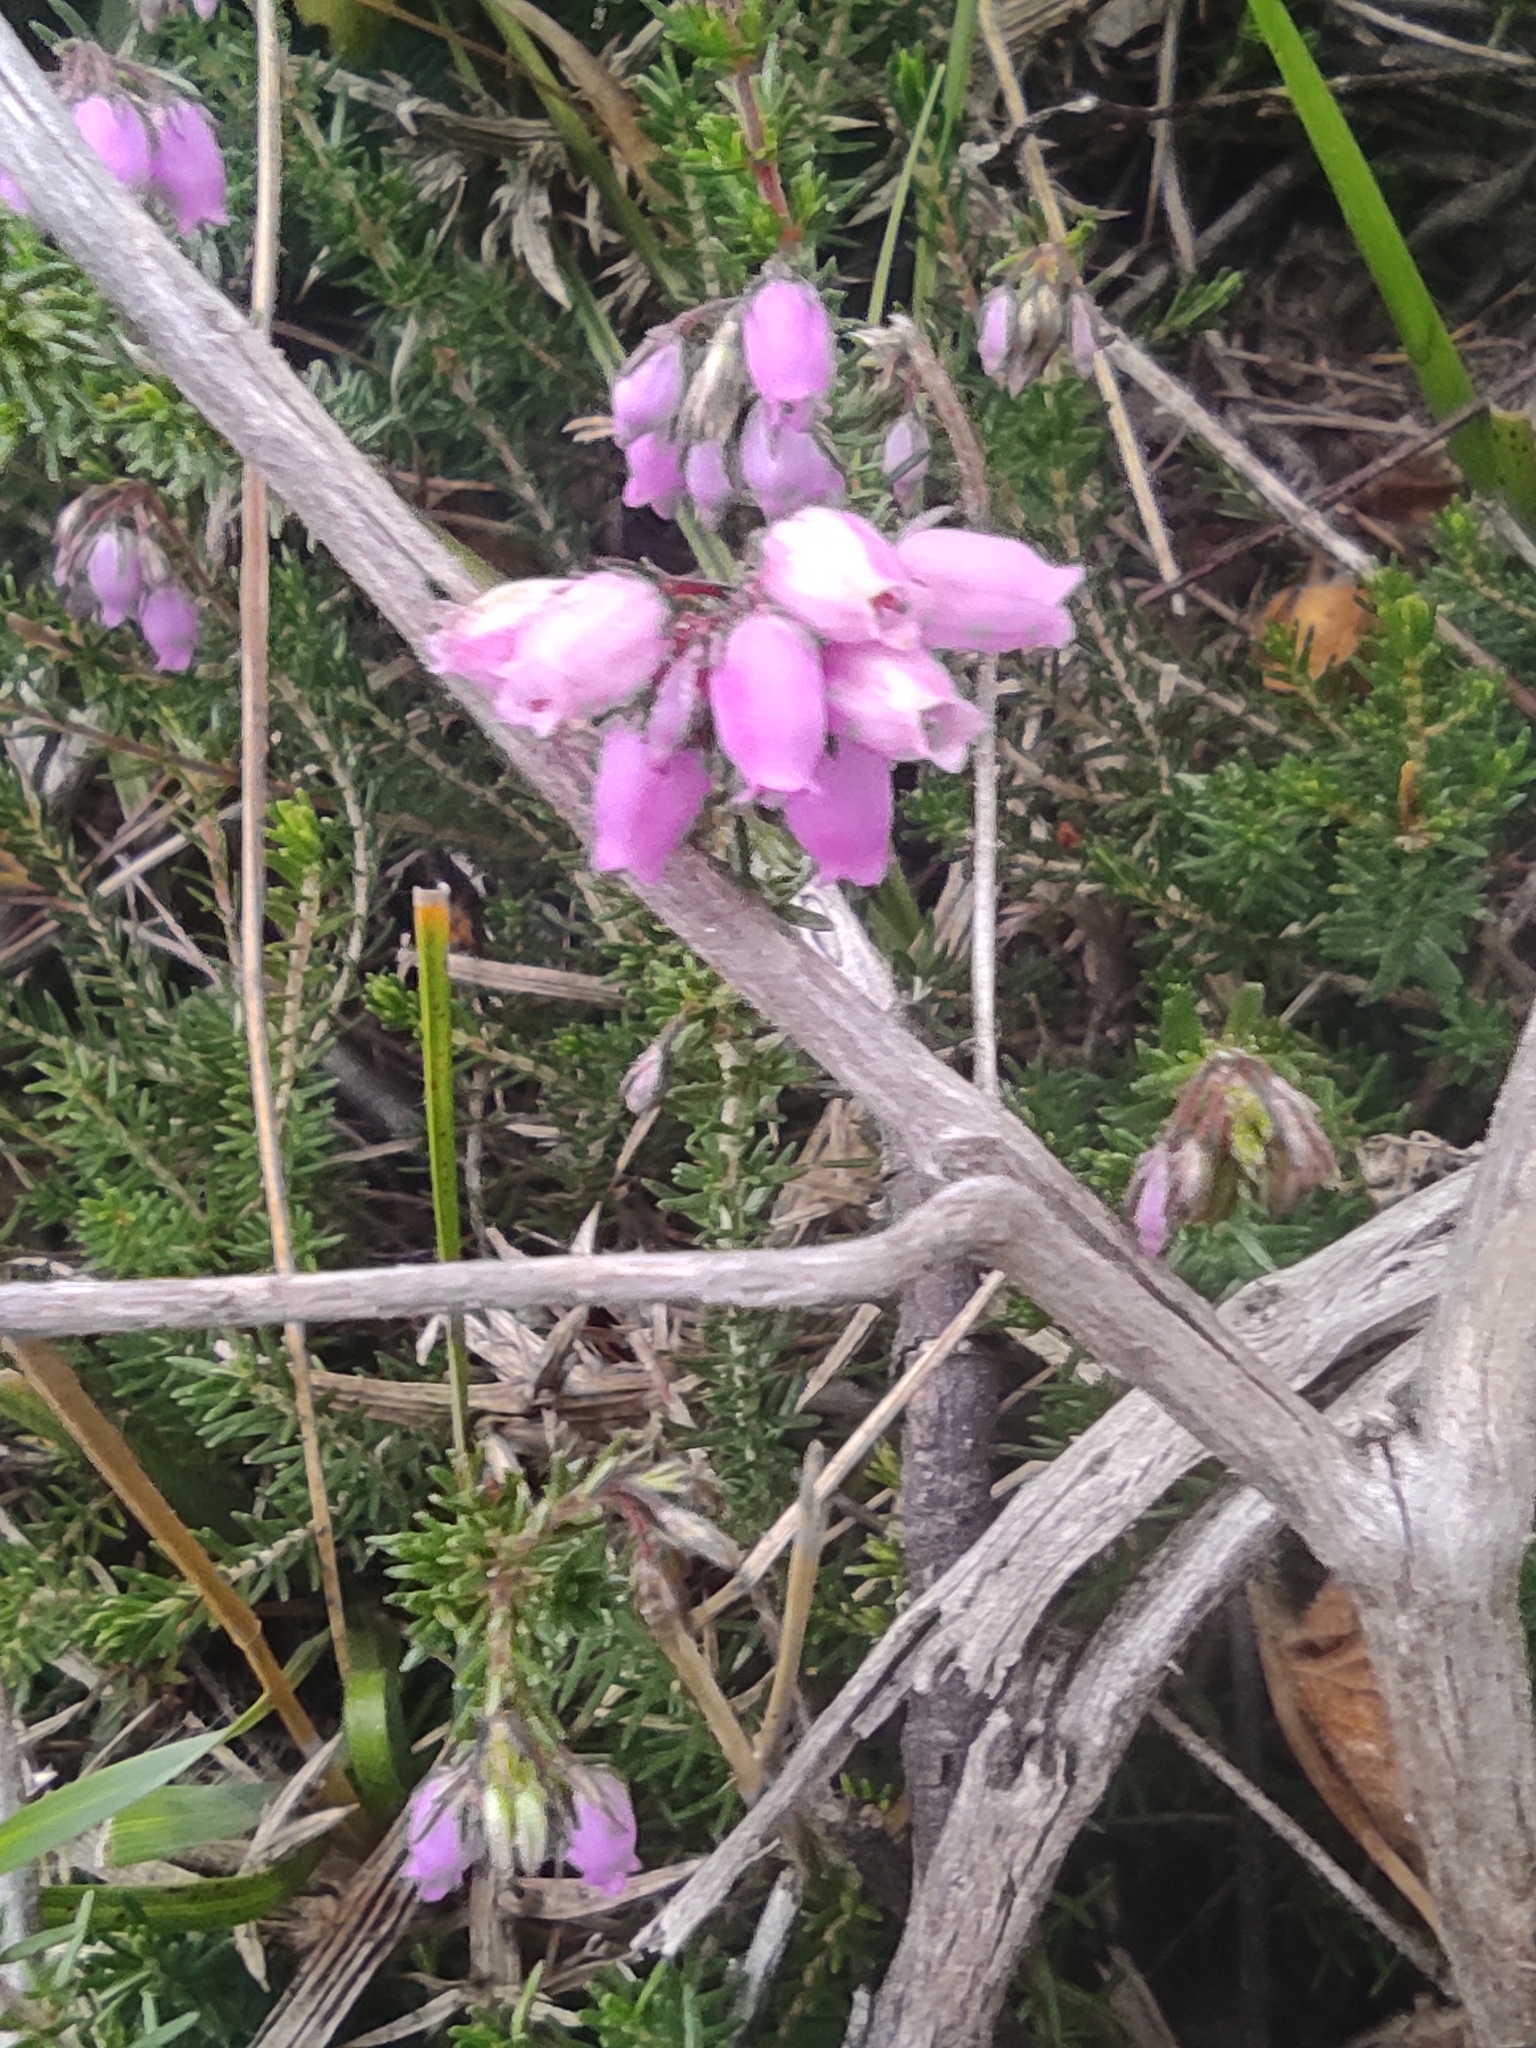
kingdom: Plantae
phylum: Tracheophyta
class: Magnoliopsida
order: Ericales
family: Ericaceae
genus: Erica
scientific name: Erica cinerea
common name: Bell heather
